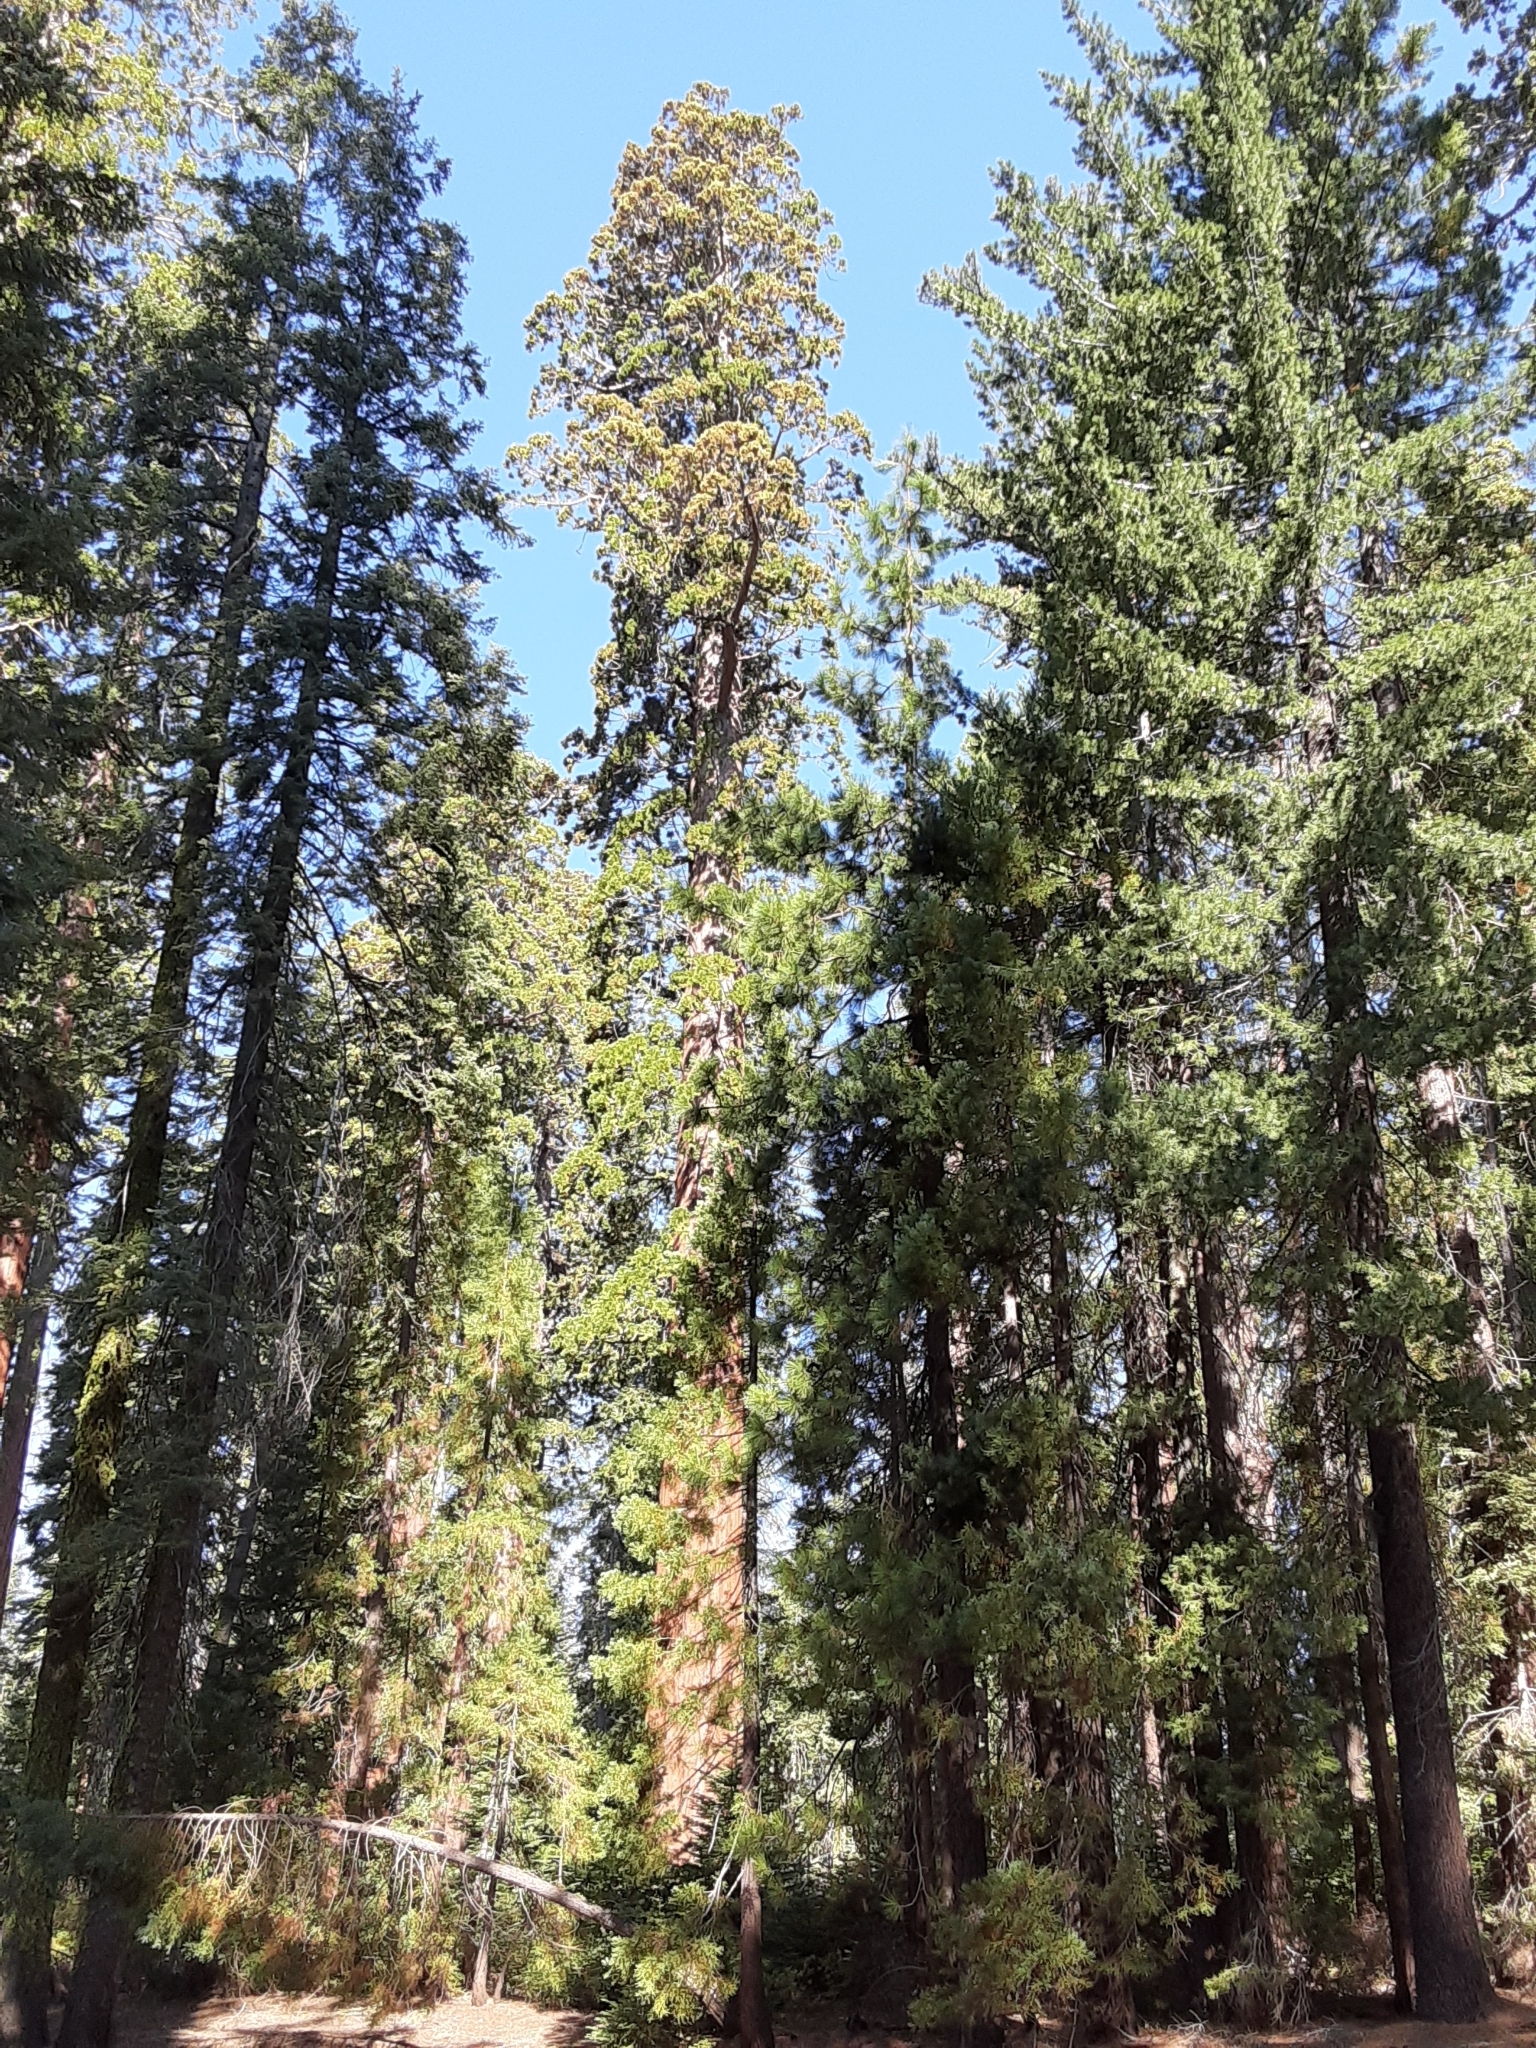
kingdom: Plantae
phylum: Tracheophyta
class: Pinopsida
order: Pinales
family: Cupressaceae
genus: Sequoiadendron
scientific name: Sequoiadendron giganteum
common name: Wellingtonia
